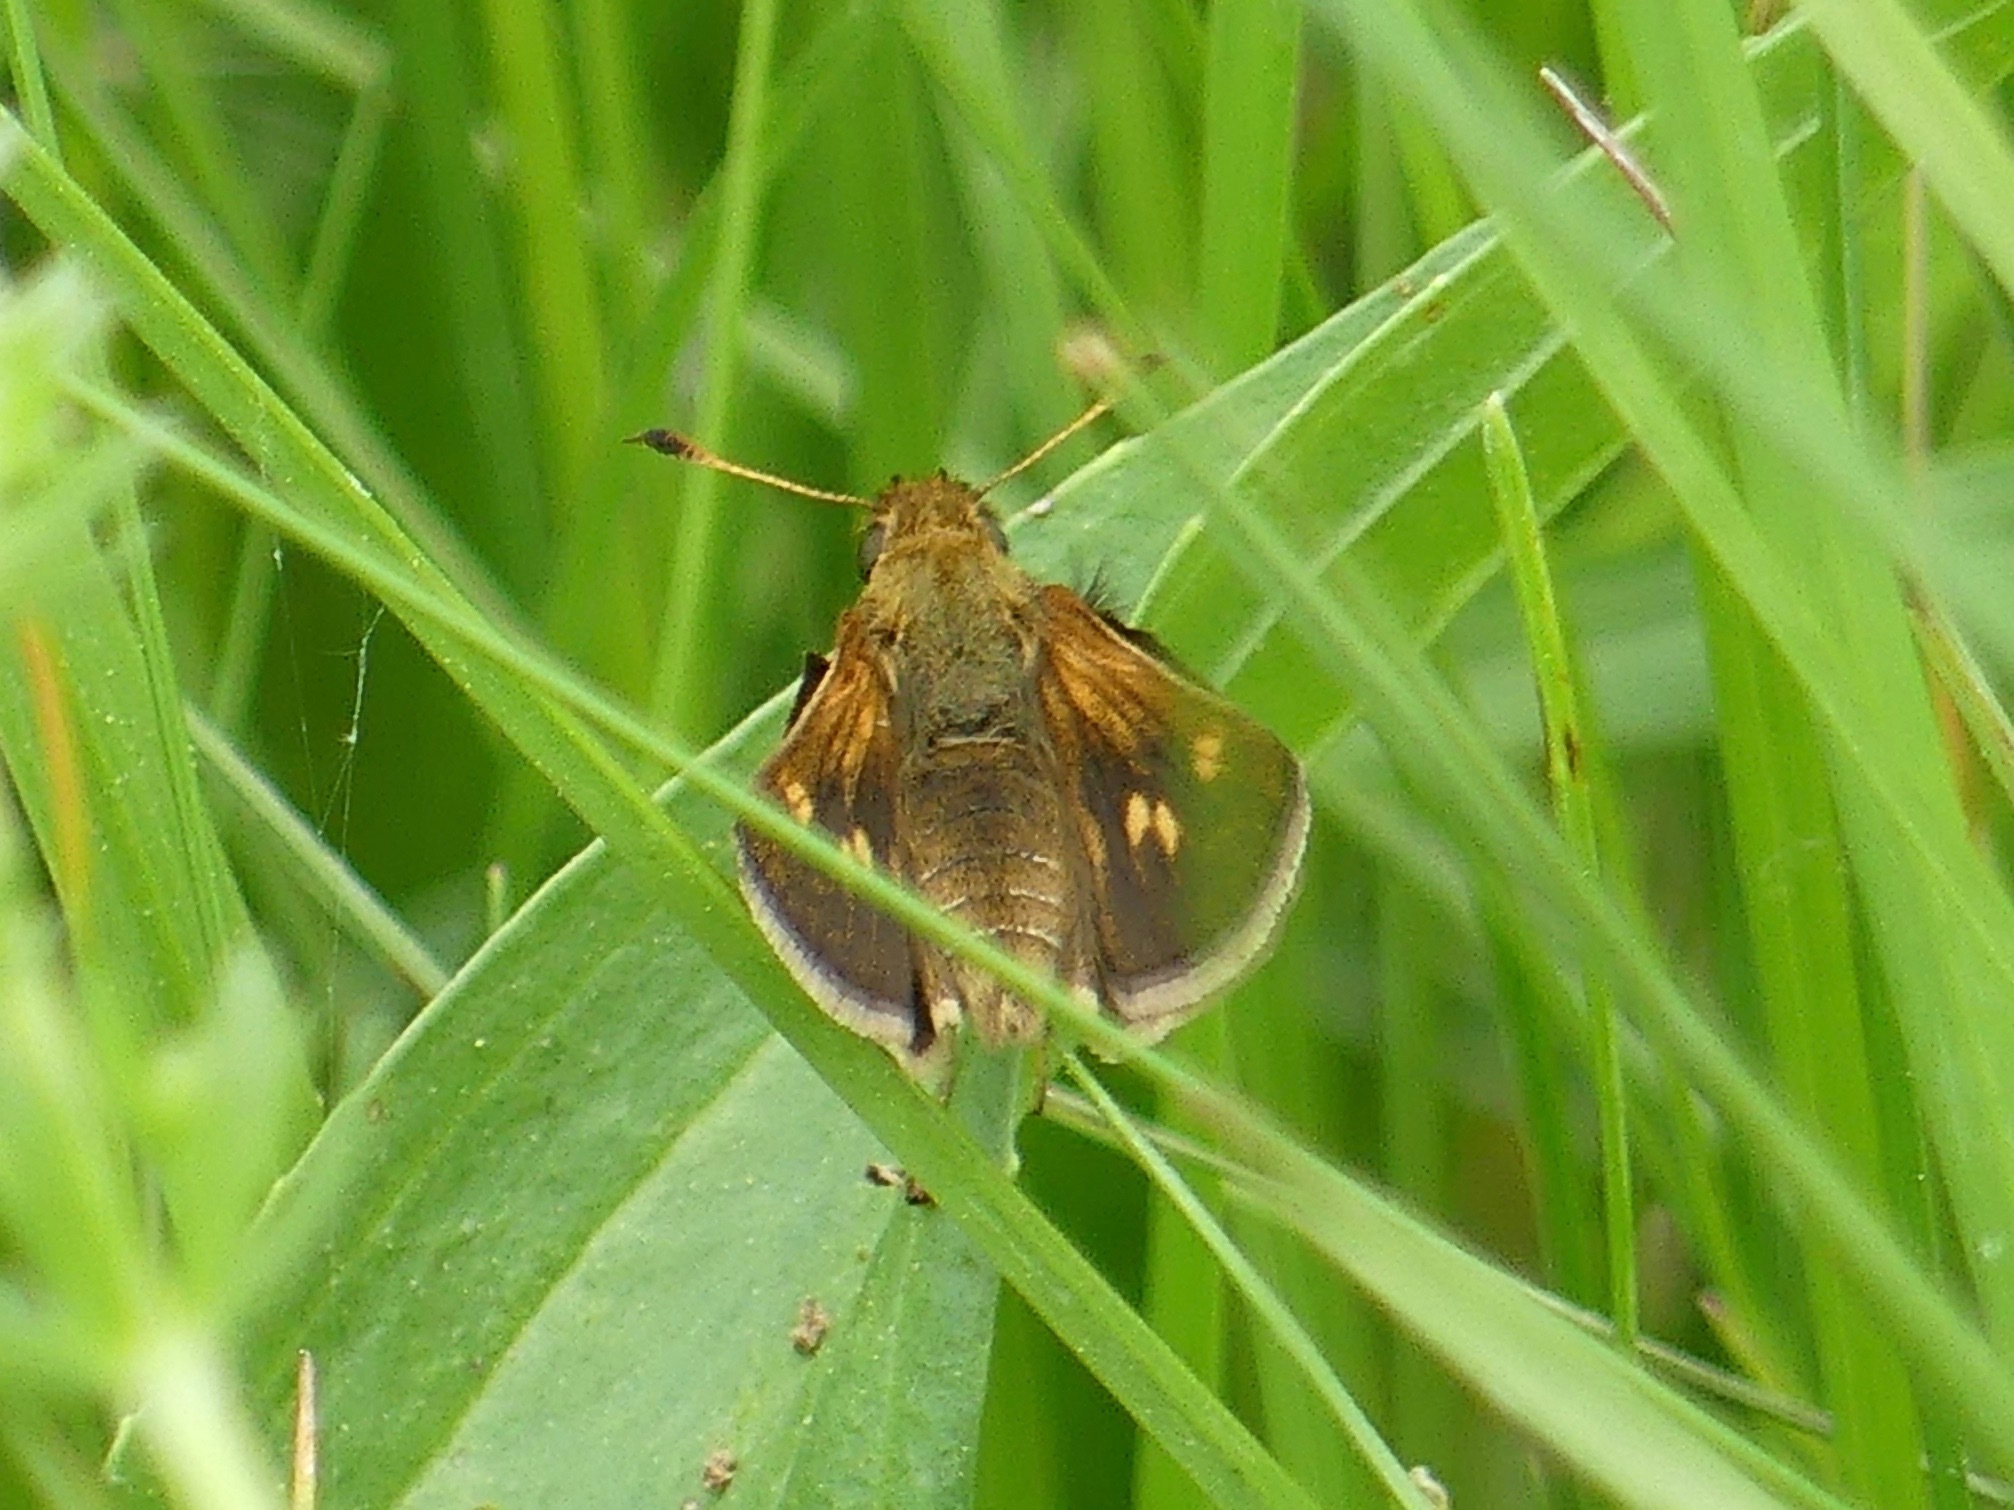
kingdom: Animalia
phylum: Arthropoda
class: Insecta
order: Lepidoptera
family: Hesperiidae
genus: Polites
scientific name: Polites coras
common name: Peck's skipper
